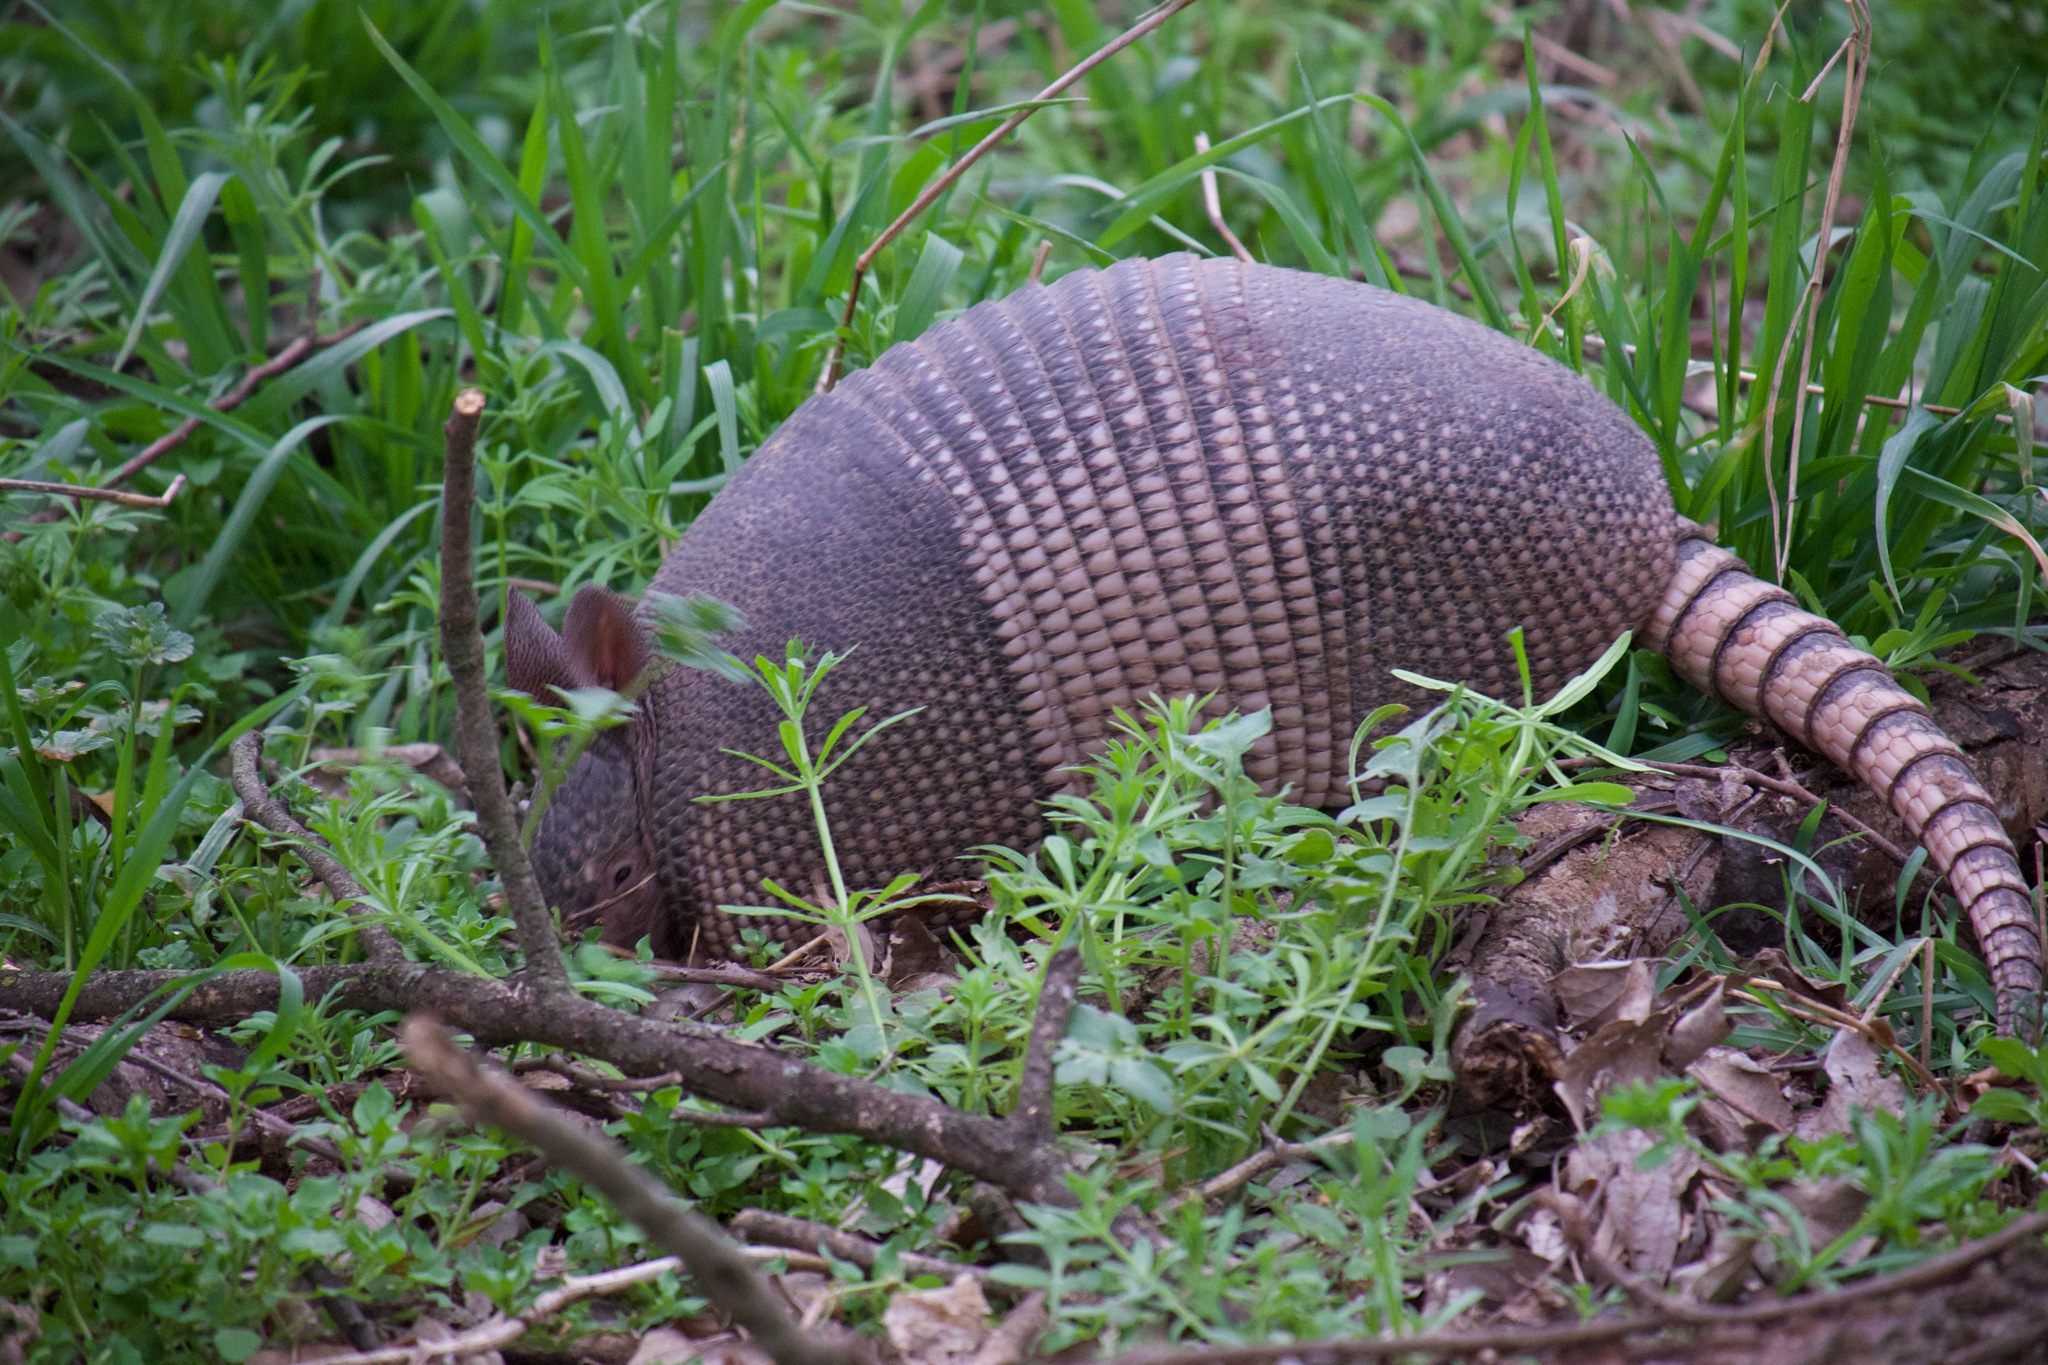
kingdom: Animalia
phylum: Chordata
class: Mammalia
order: Cingulata
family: Dasypodidae
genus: Dasypus
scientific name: Dasypus novemcinctus
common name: Nine-banded armadillo
